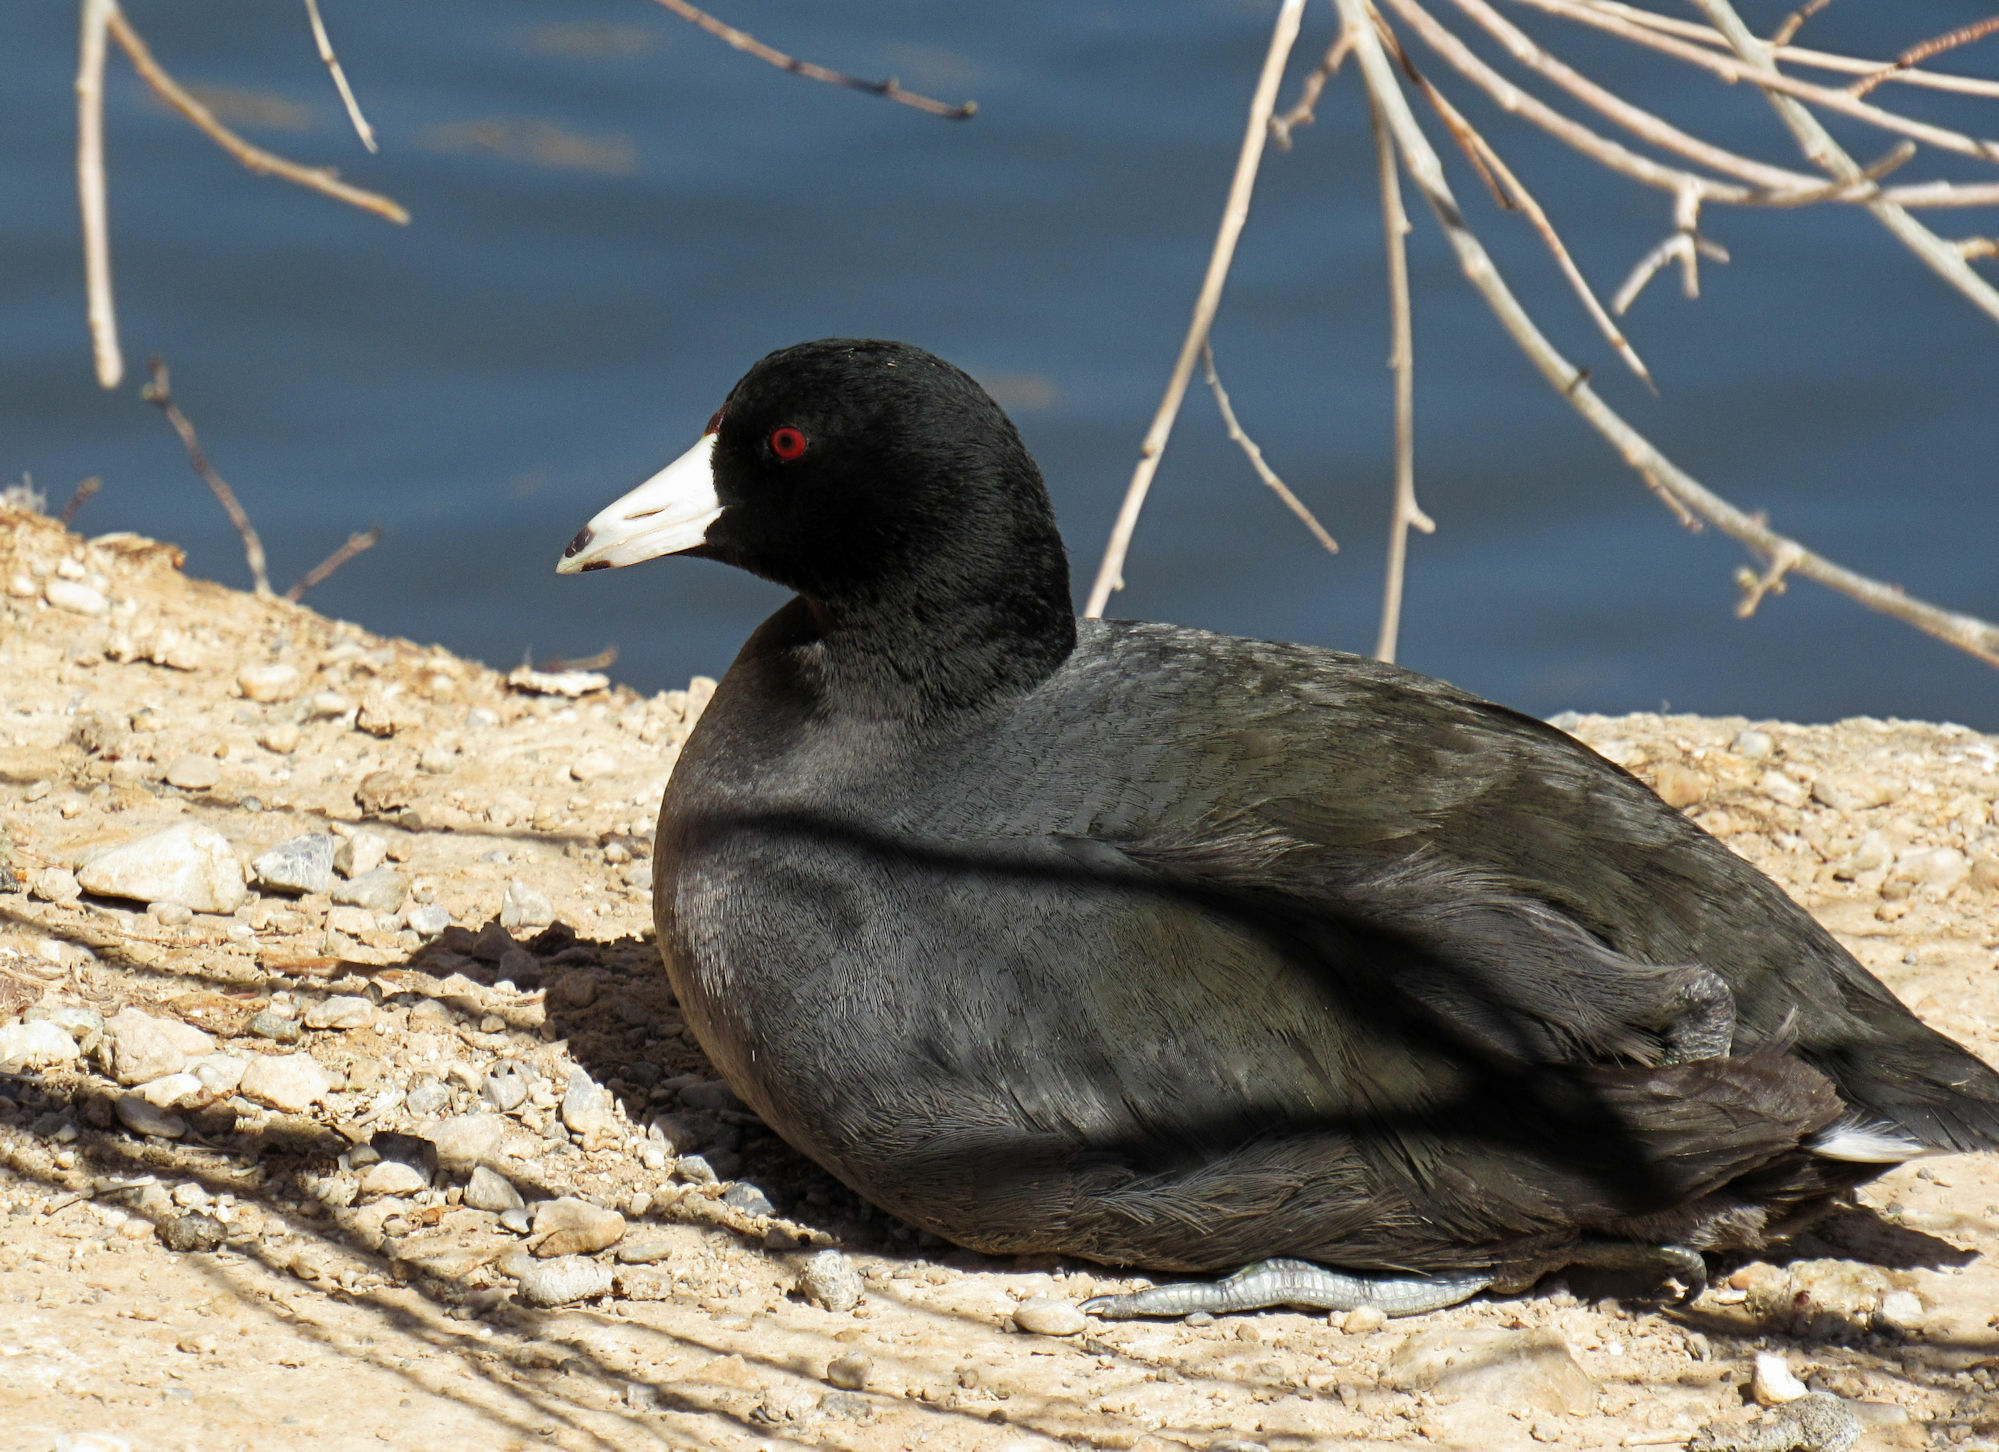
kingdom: Animalia
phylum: Chordata
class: Aves
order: Gruiformes
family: Rallidae
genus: Fulica
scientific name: Fulica americana
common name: American coot
